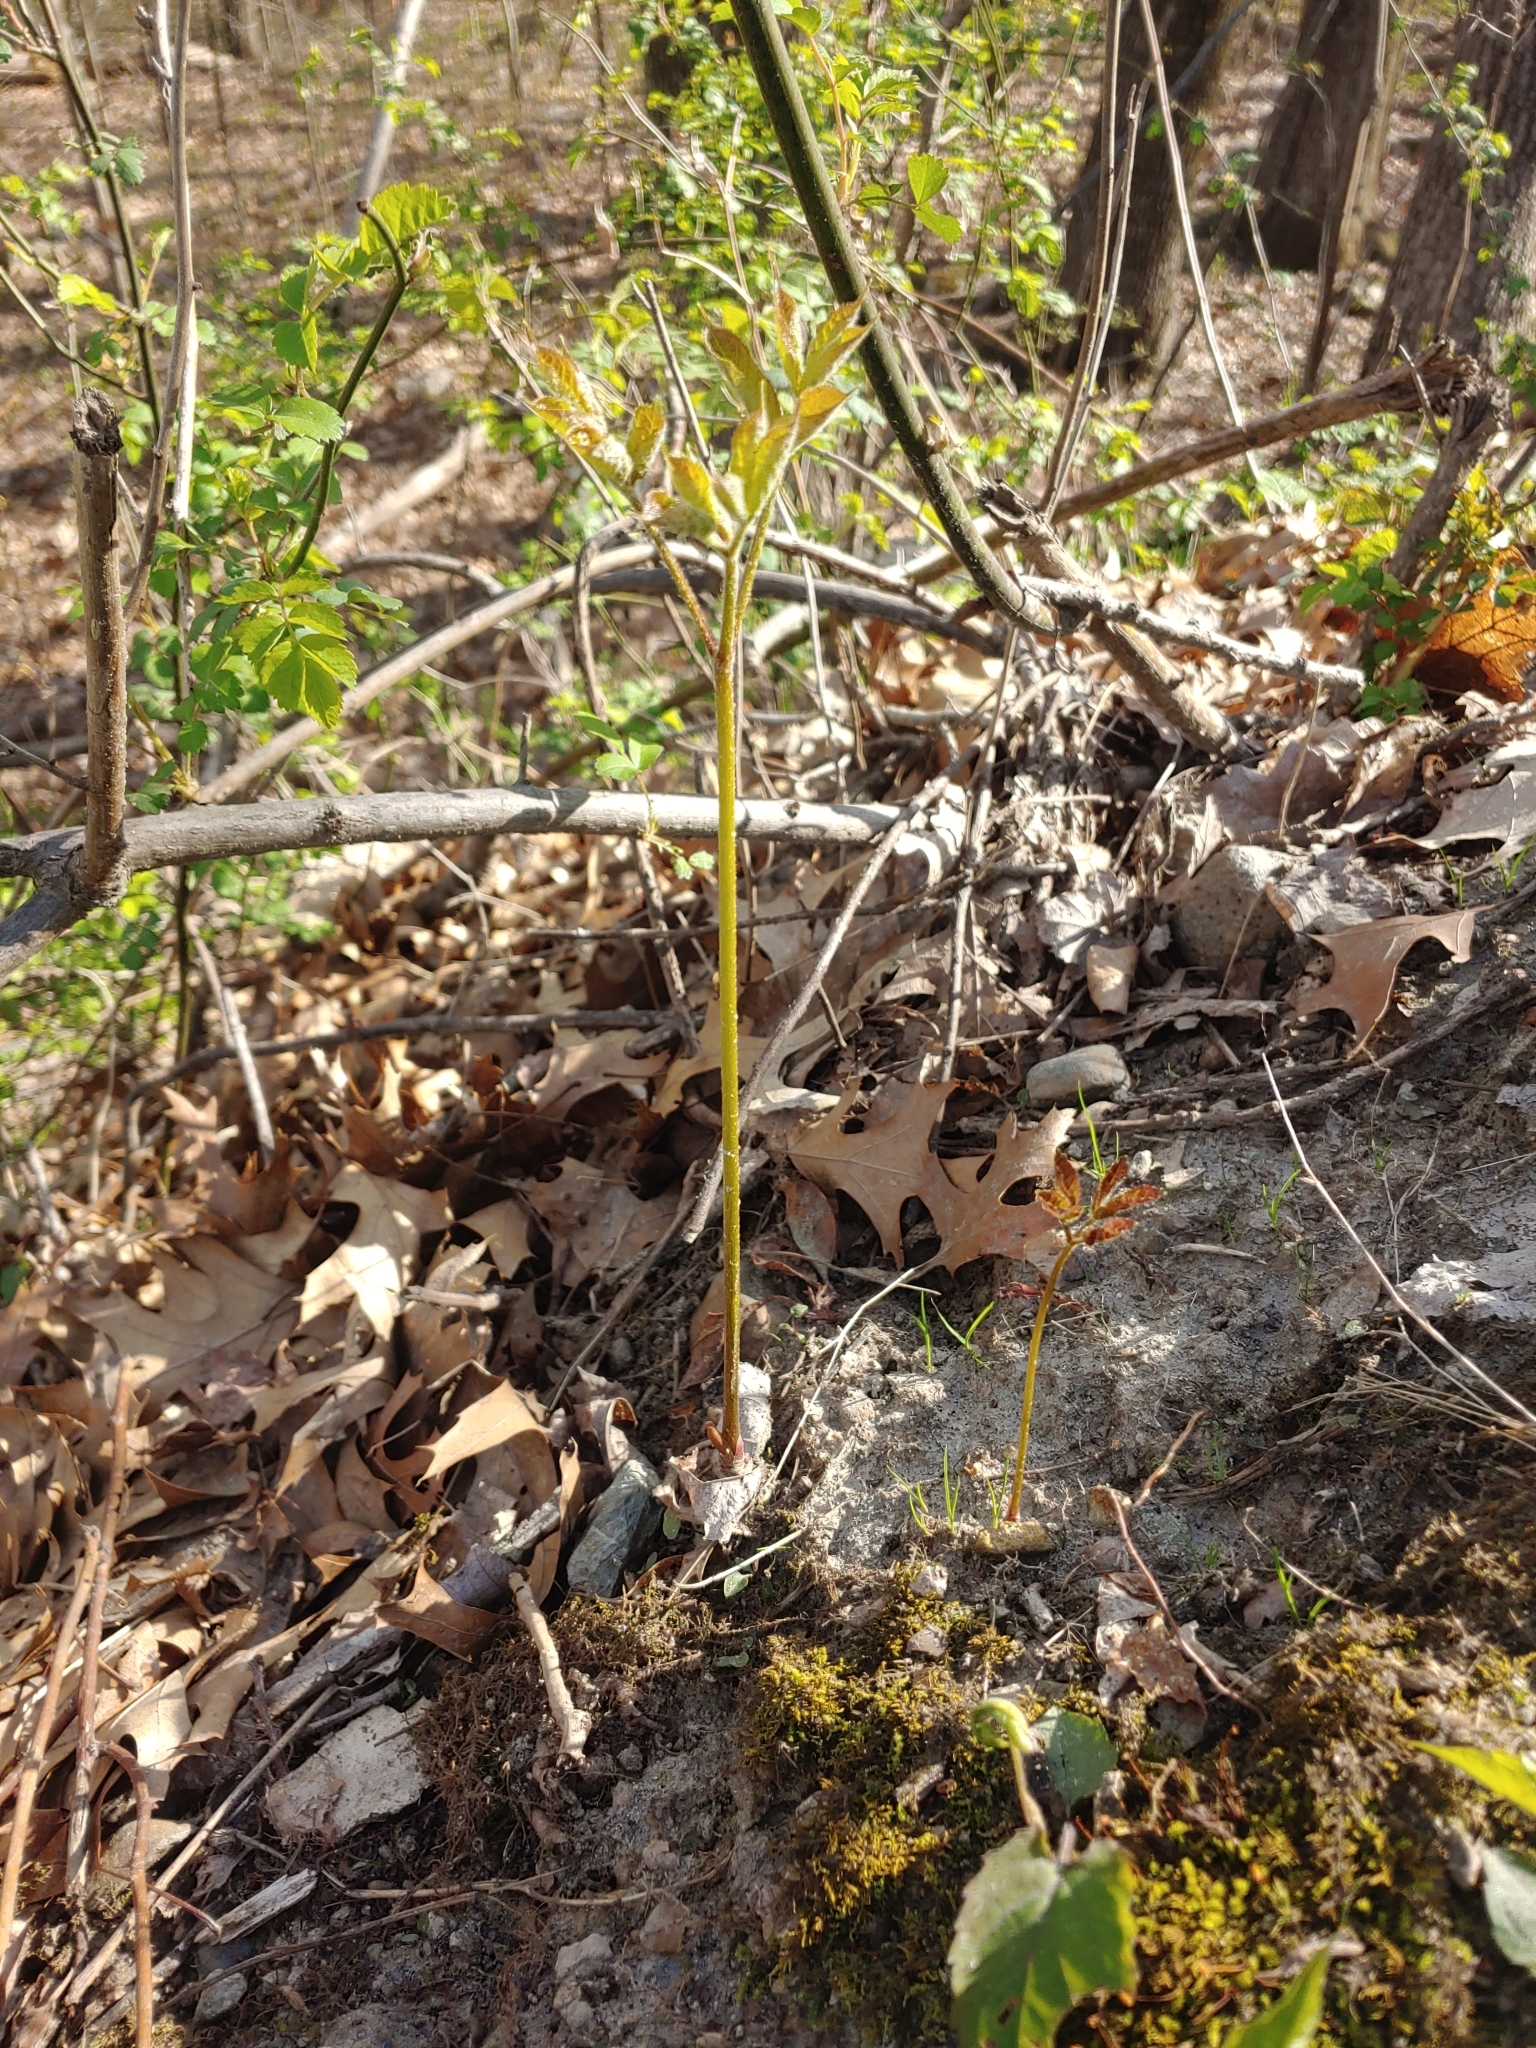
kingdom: Plantae
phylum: Tracheophyta
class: Magnoliopsida
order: Apiales
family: Araliaceae
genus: Aralia
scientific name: Aralia nudicaulis
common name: Wild sarsaparilla
